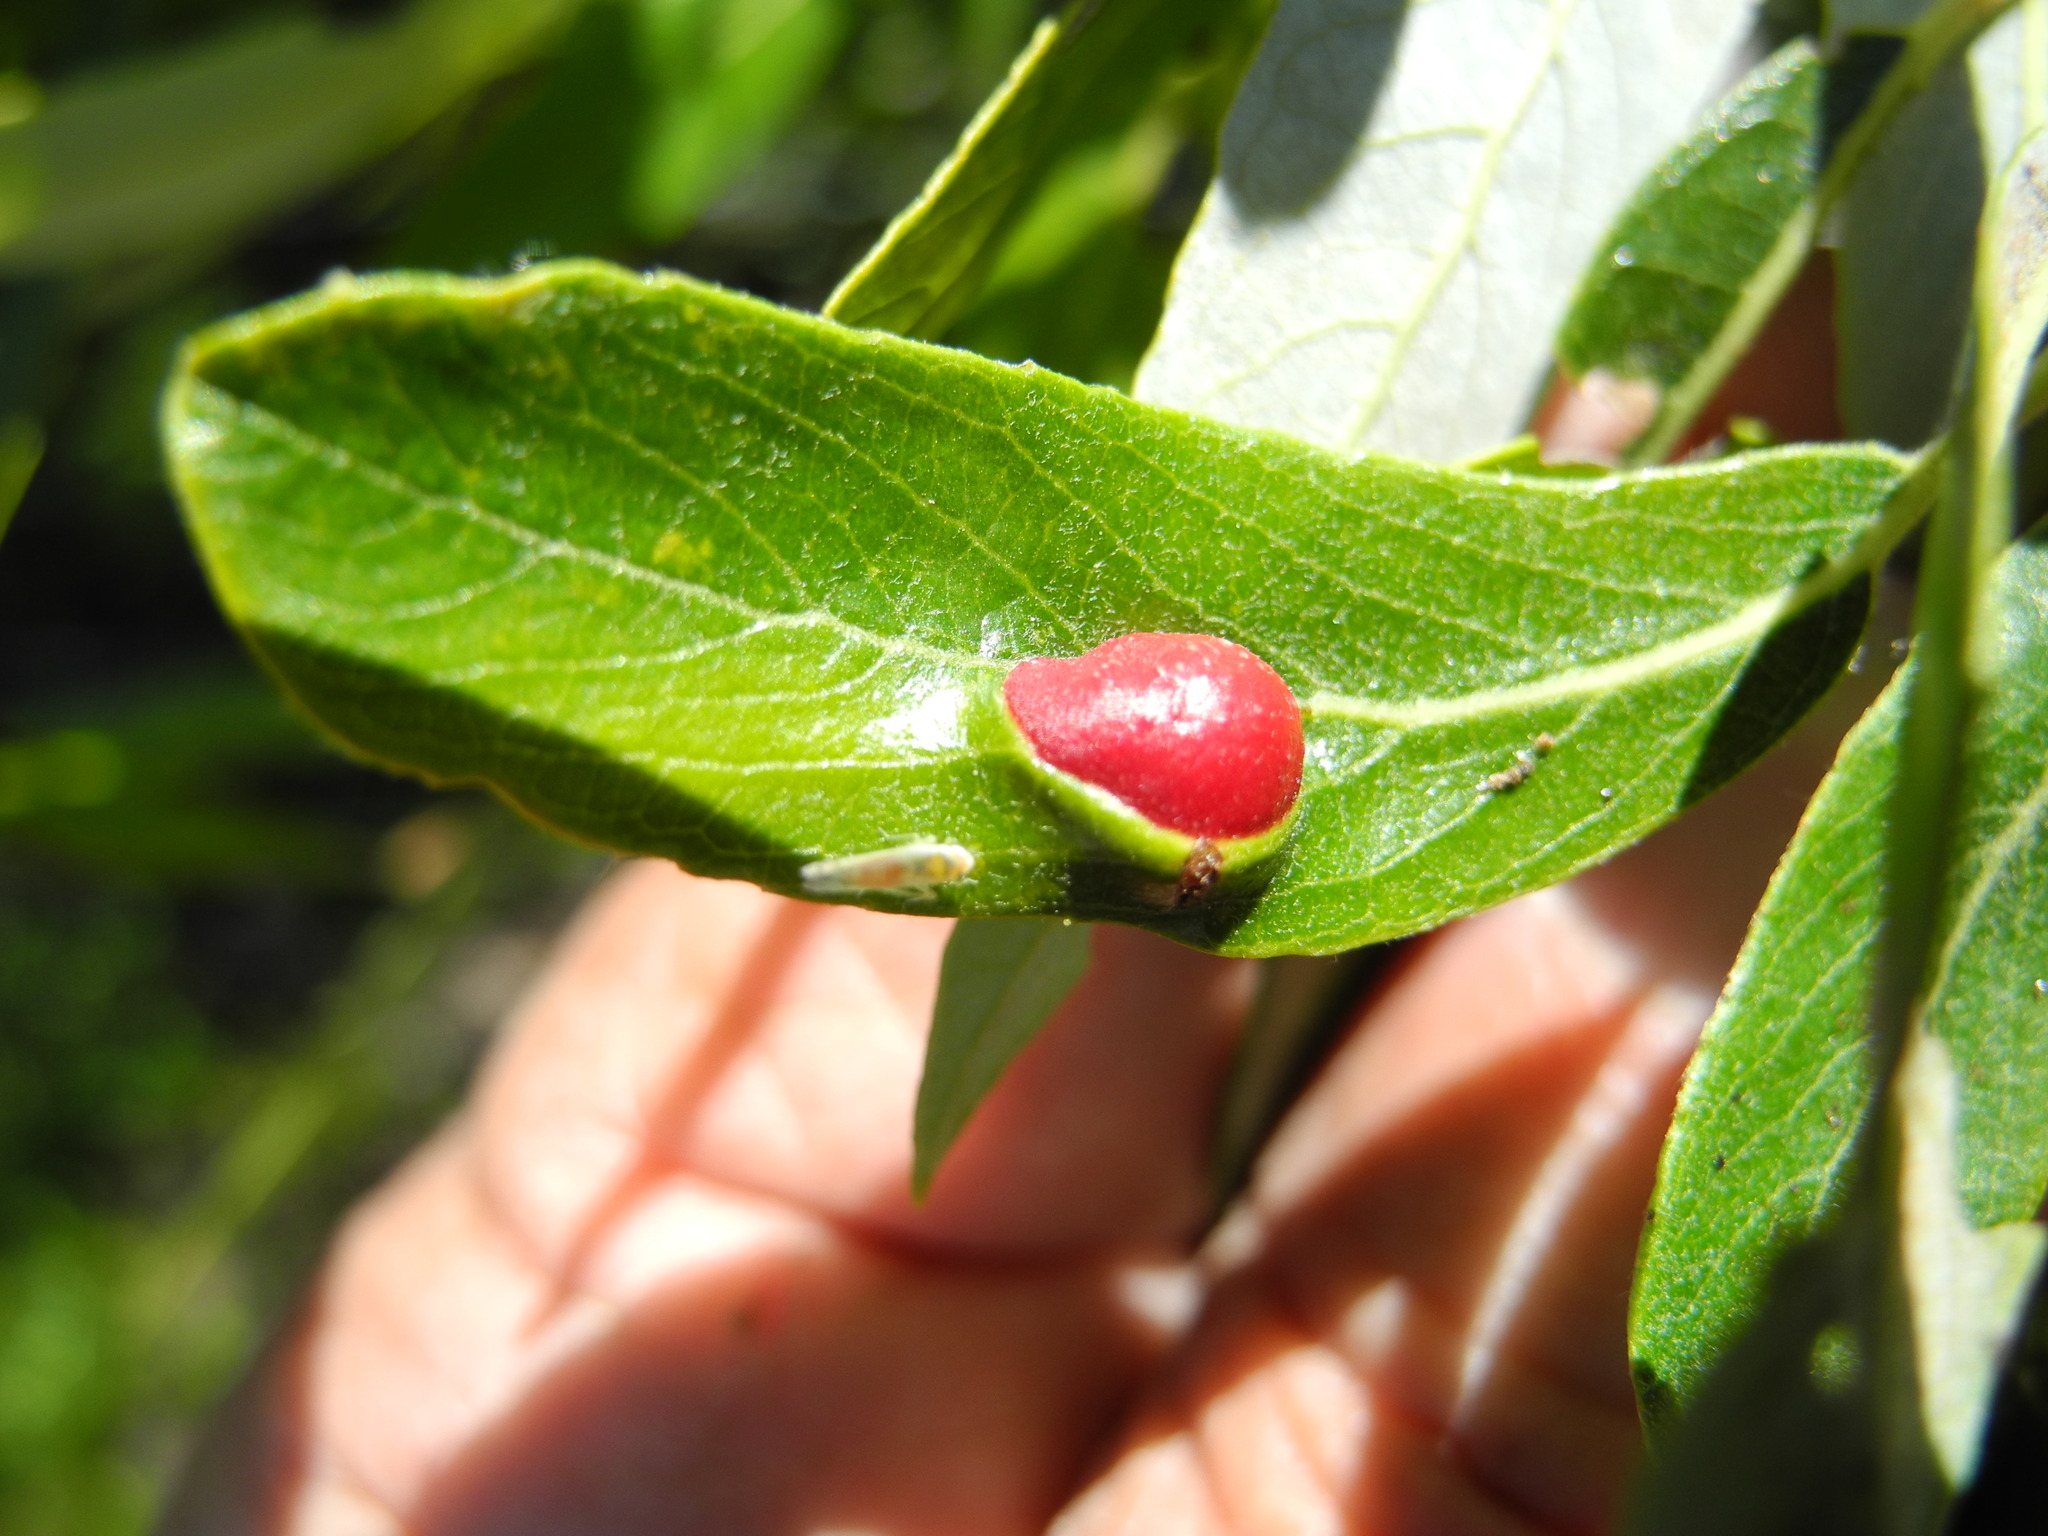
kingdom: Animalia
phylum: Arthropoda
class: Insecta
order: Hymenoptera
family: Tenthredinidae
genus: Euura
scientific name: Euura
